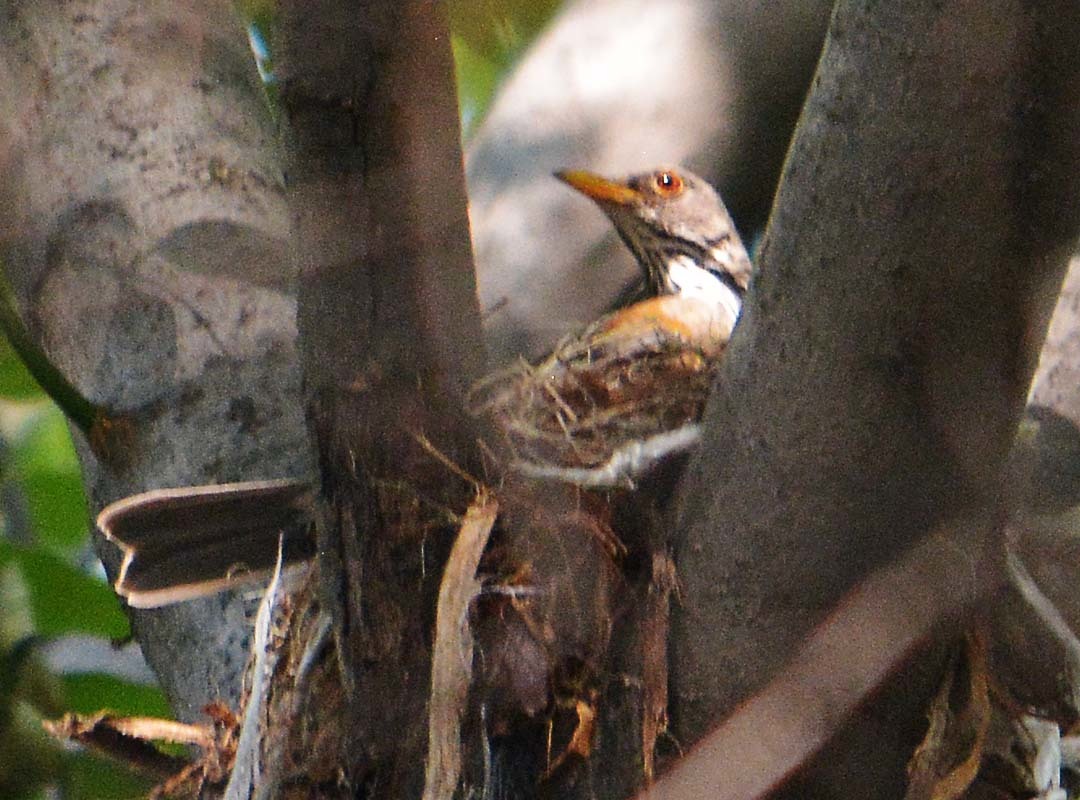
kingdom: Animalia
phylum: Chordata
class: Aves
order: Passeriformes
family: Turdidae
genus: Turdus
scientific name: Turdus rufopalliatus
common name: Rufous-backed robin
